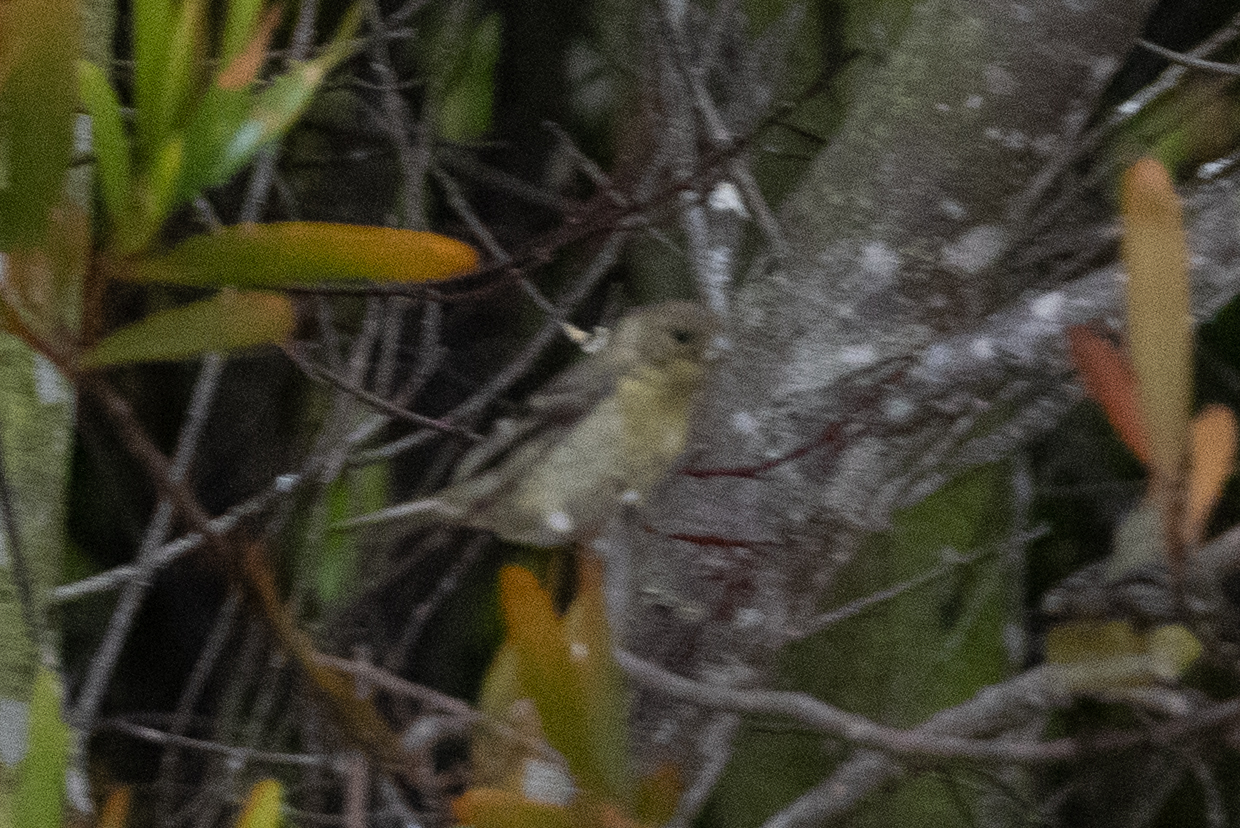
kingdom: Animalia
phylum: Chordata
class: Aves
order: Passeriformes
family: Fringillidae
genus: Spinus
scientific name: Spinus psaltria
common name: Lesser goldfinch
